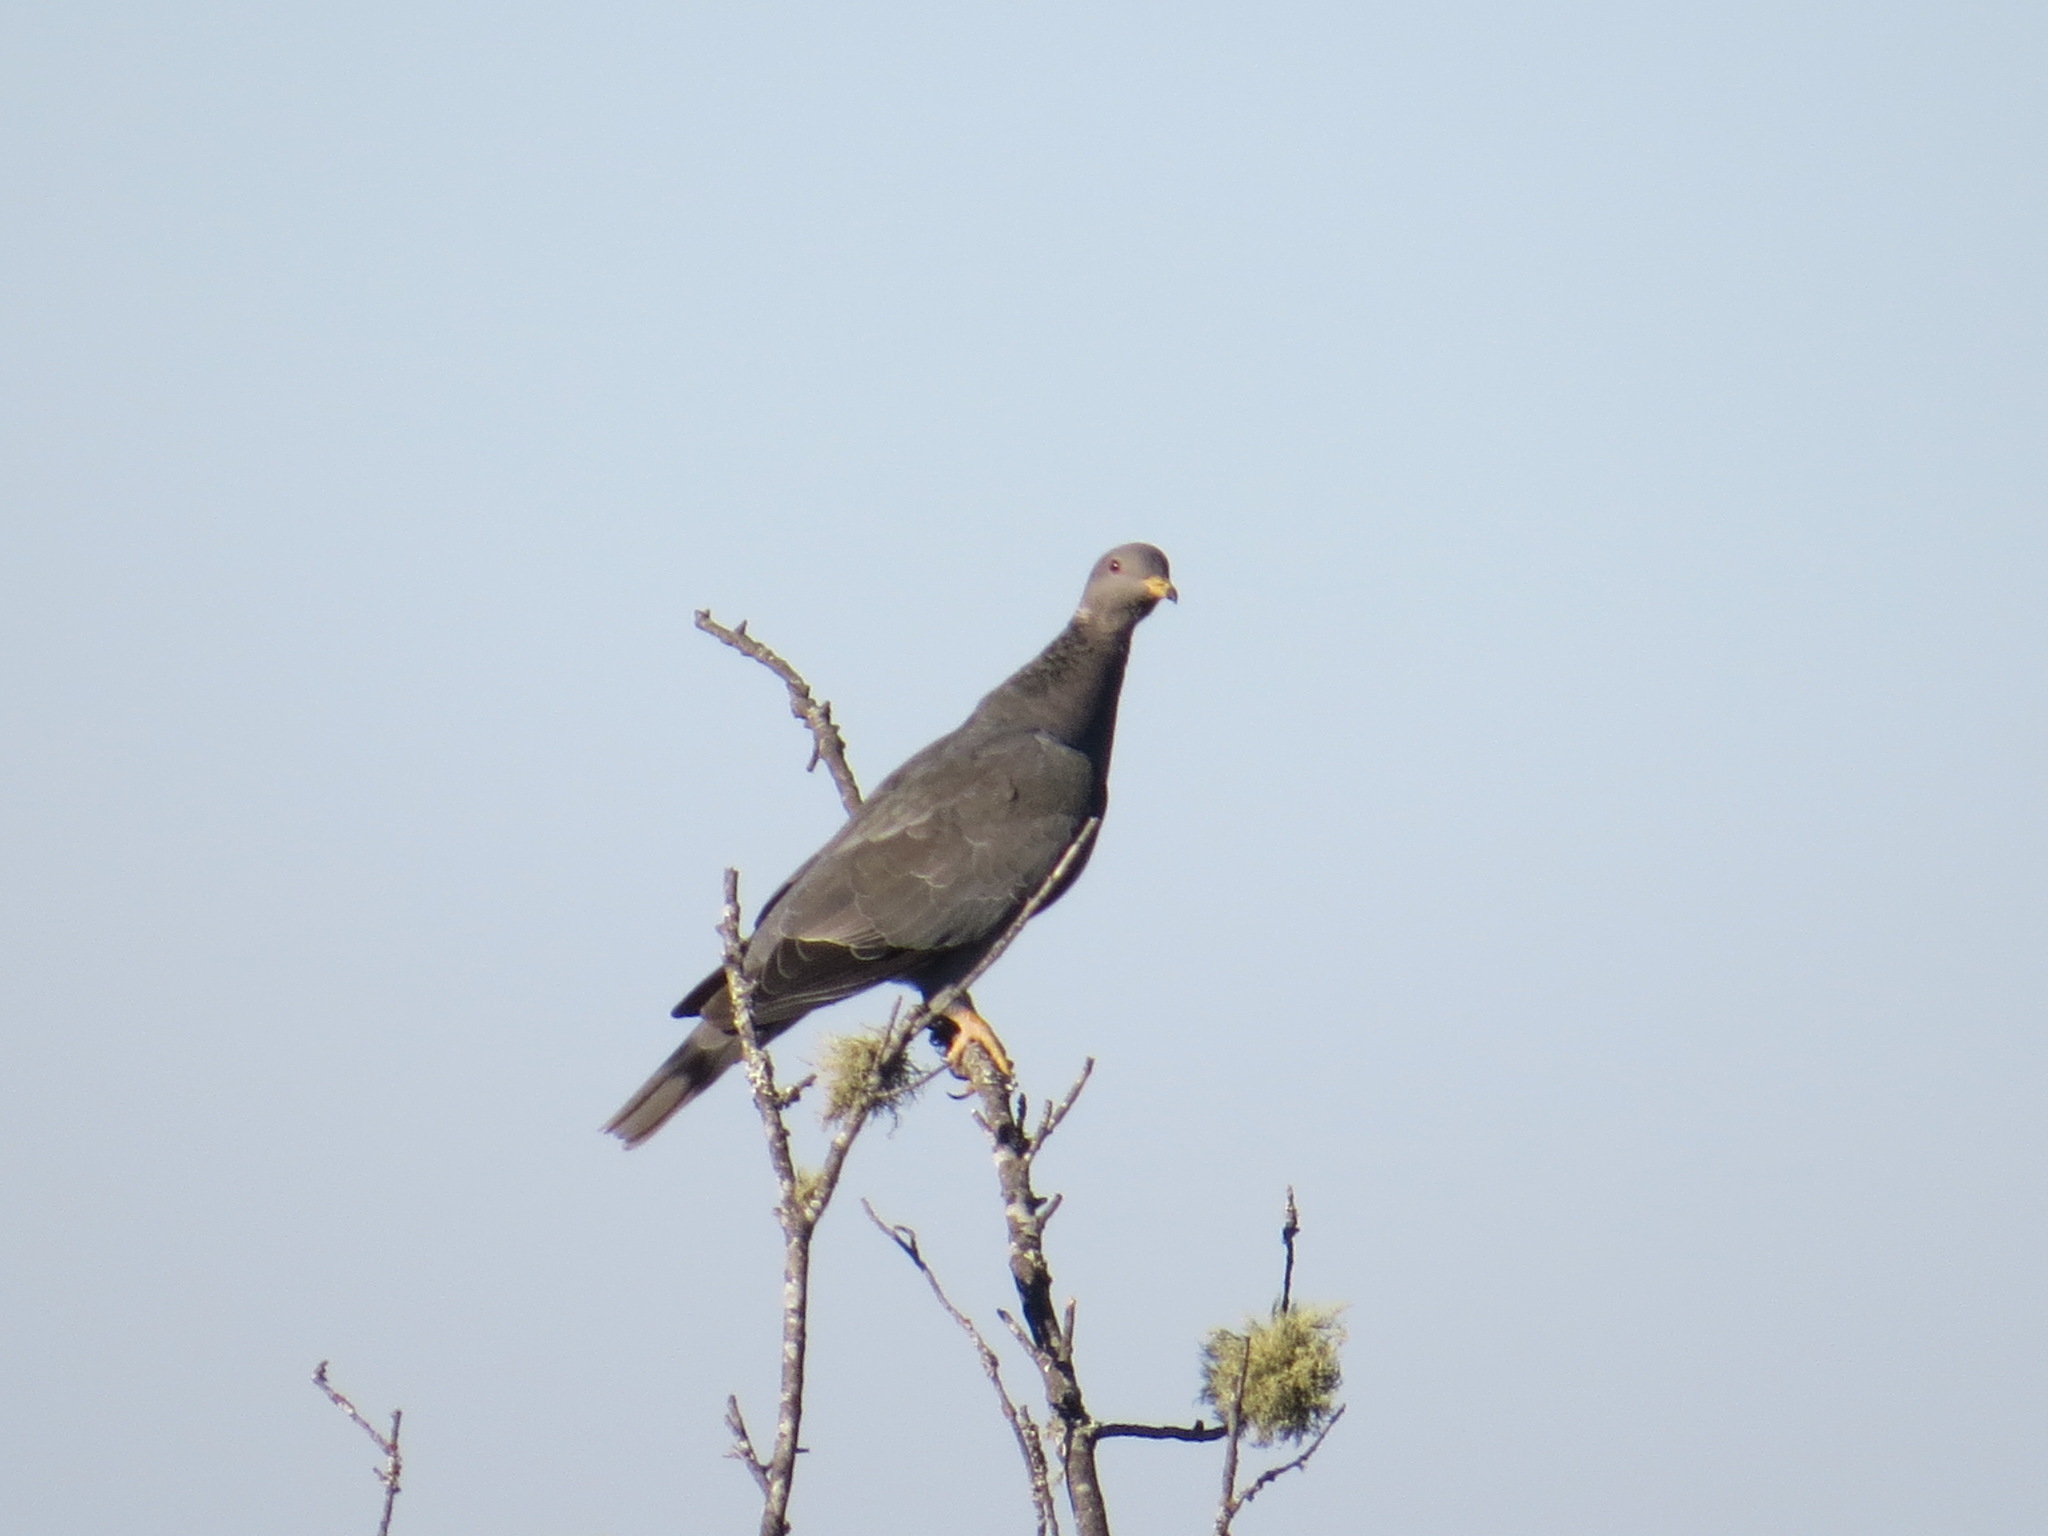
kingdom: Animalia
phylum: Chordata
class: Aves
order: Columbiformes
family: Columbidae
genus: Patagioenas
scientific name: Patagioenas fasciata
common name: Band-tailed pigeon
